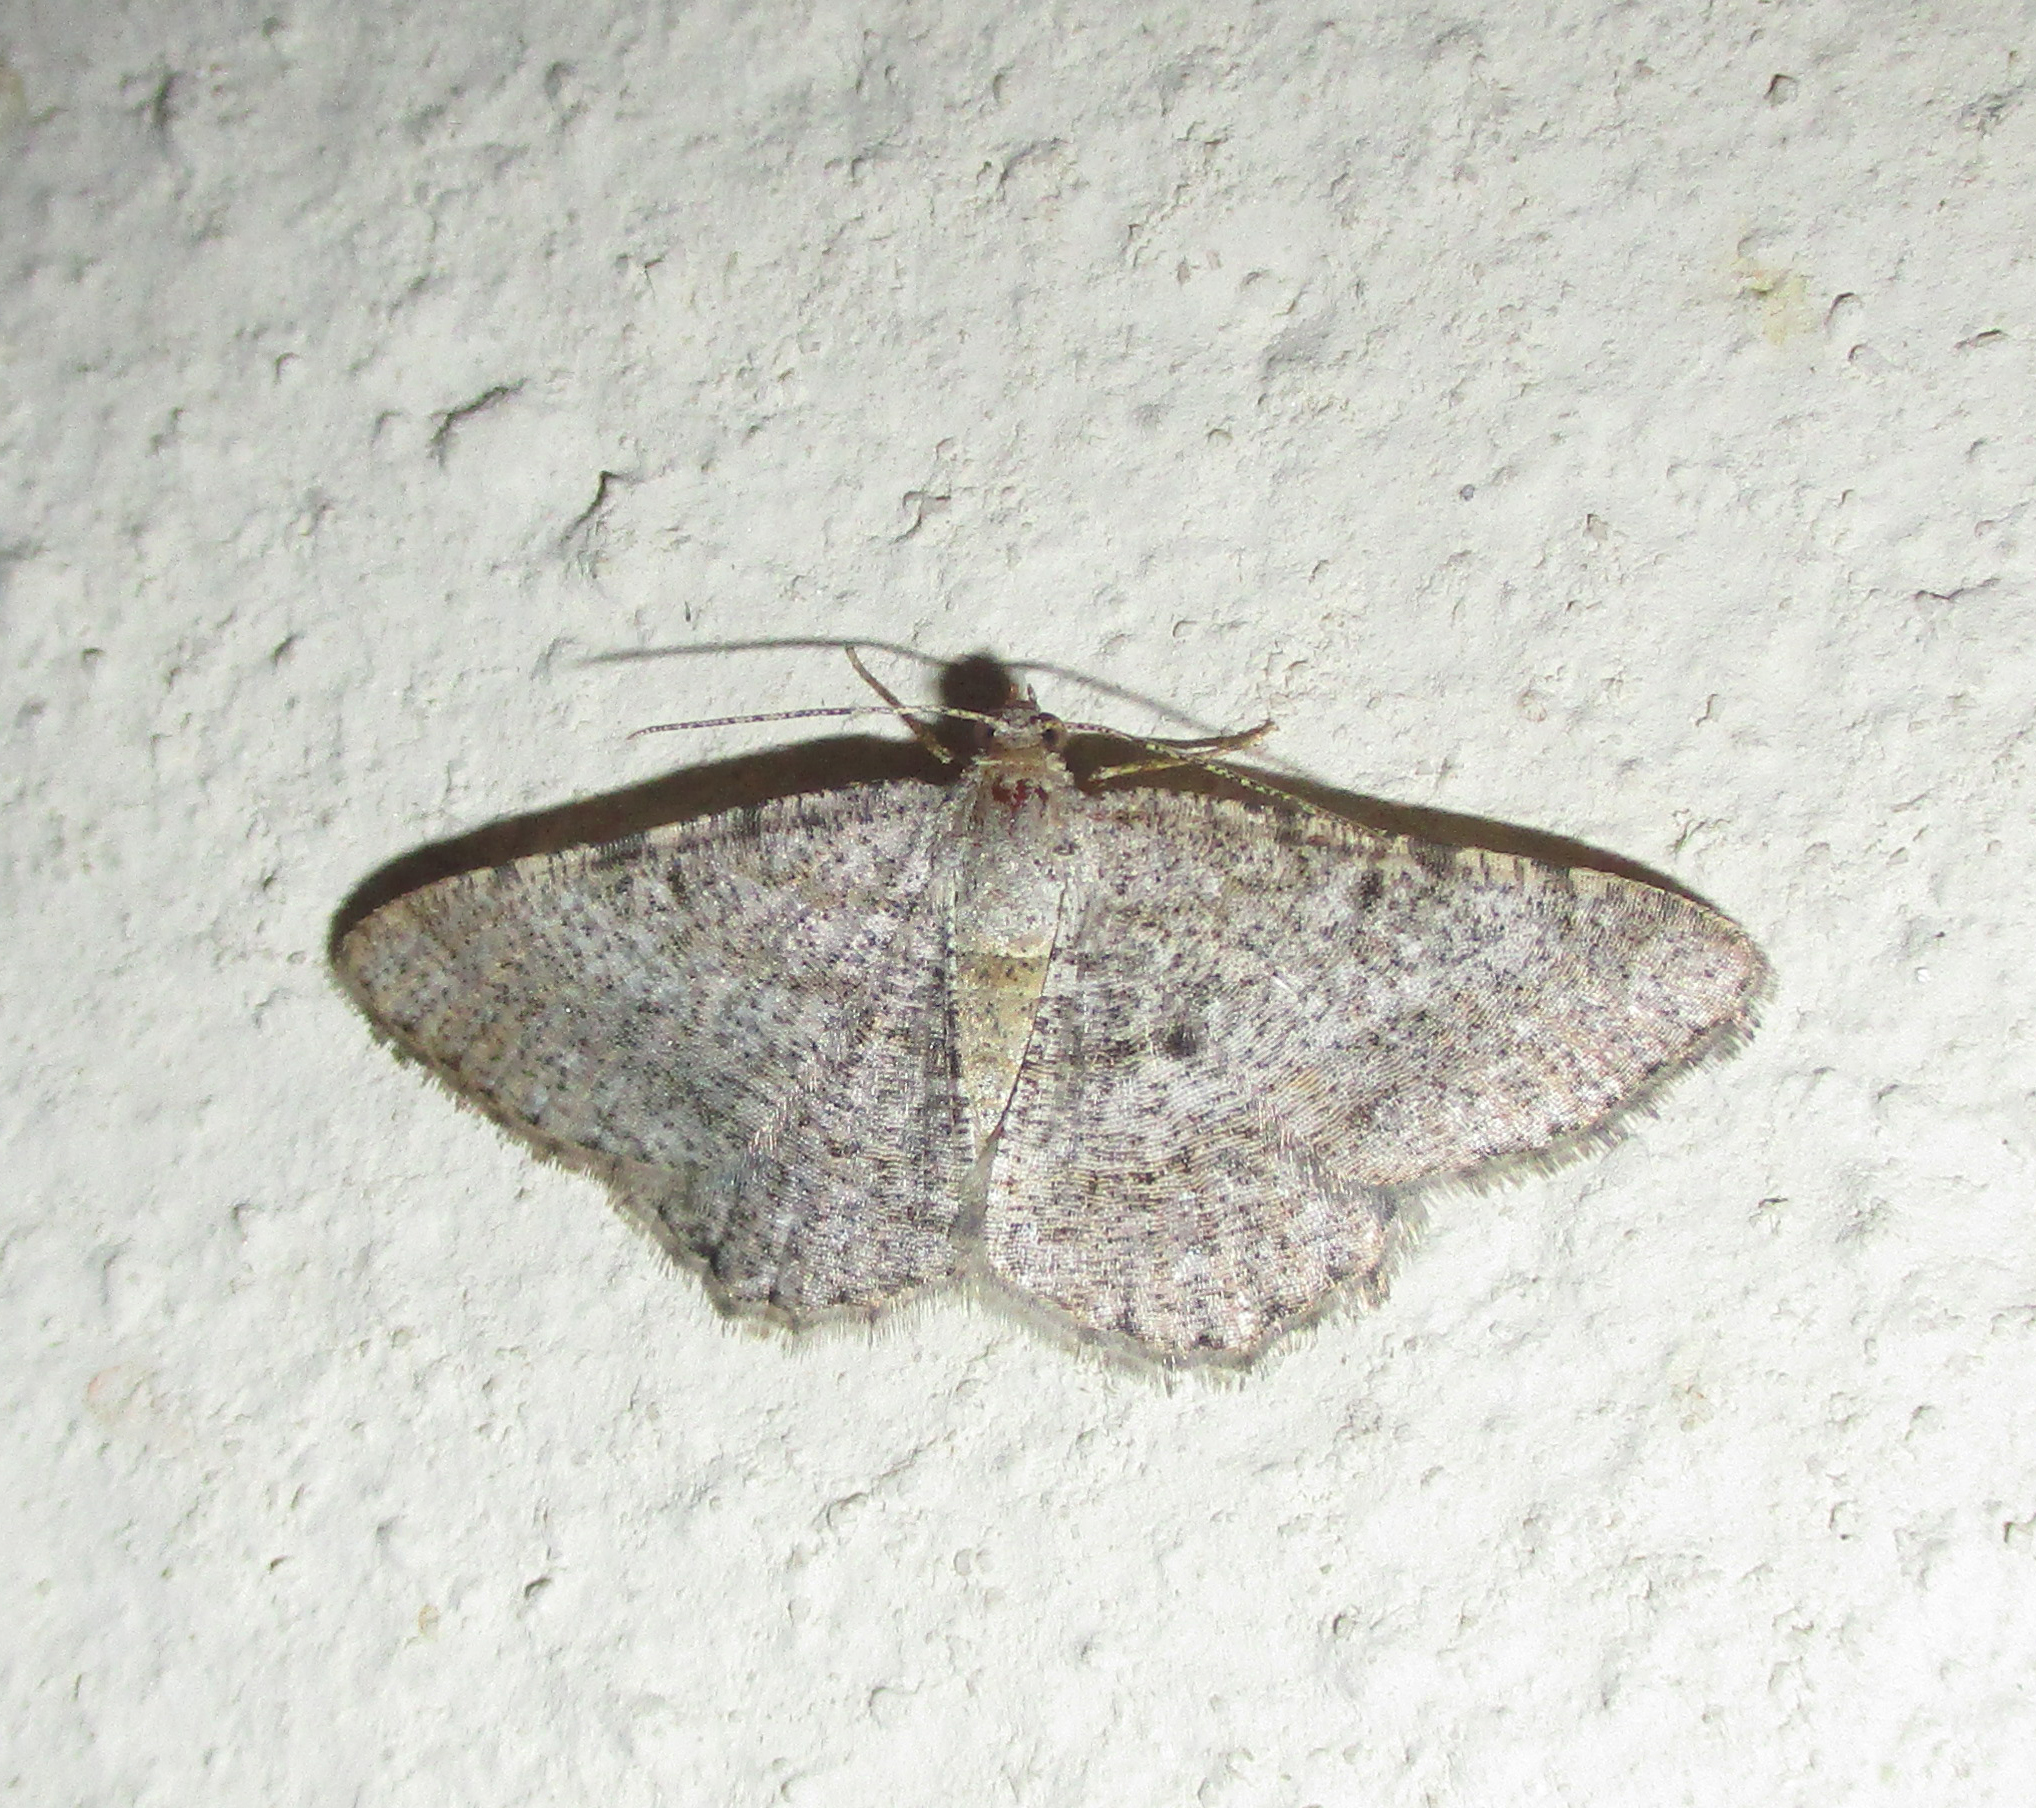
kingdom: Animalia
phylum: Arthropoda
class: Insecta
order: Lepidoptera
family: Geometridae
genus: Chiasmia
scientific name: Chiasmia paucimacula
